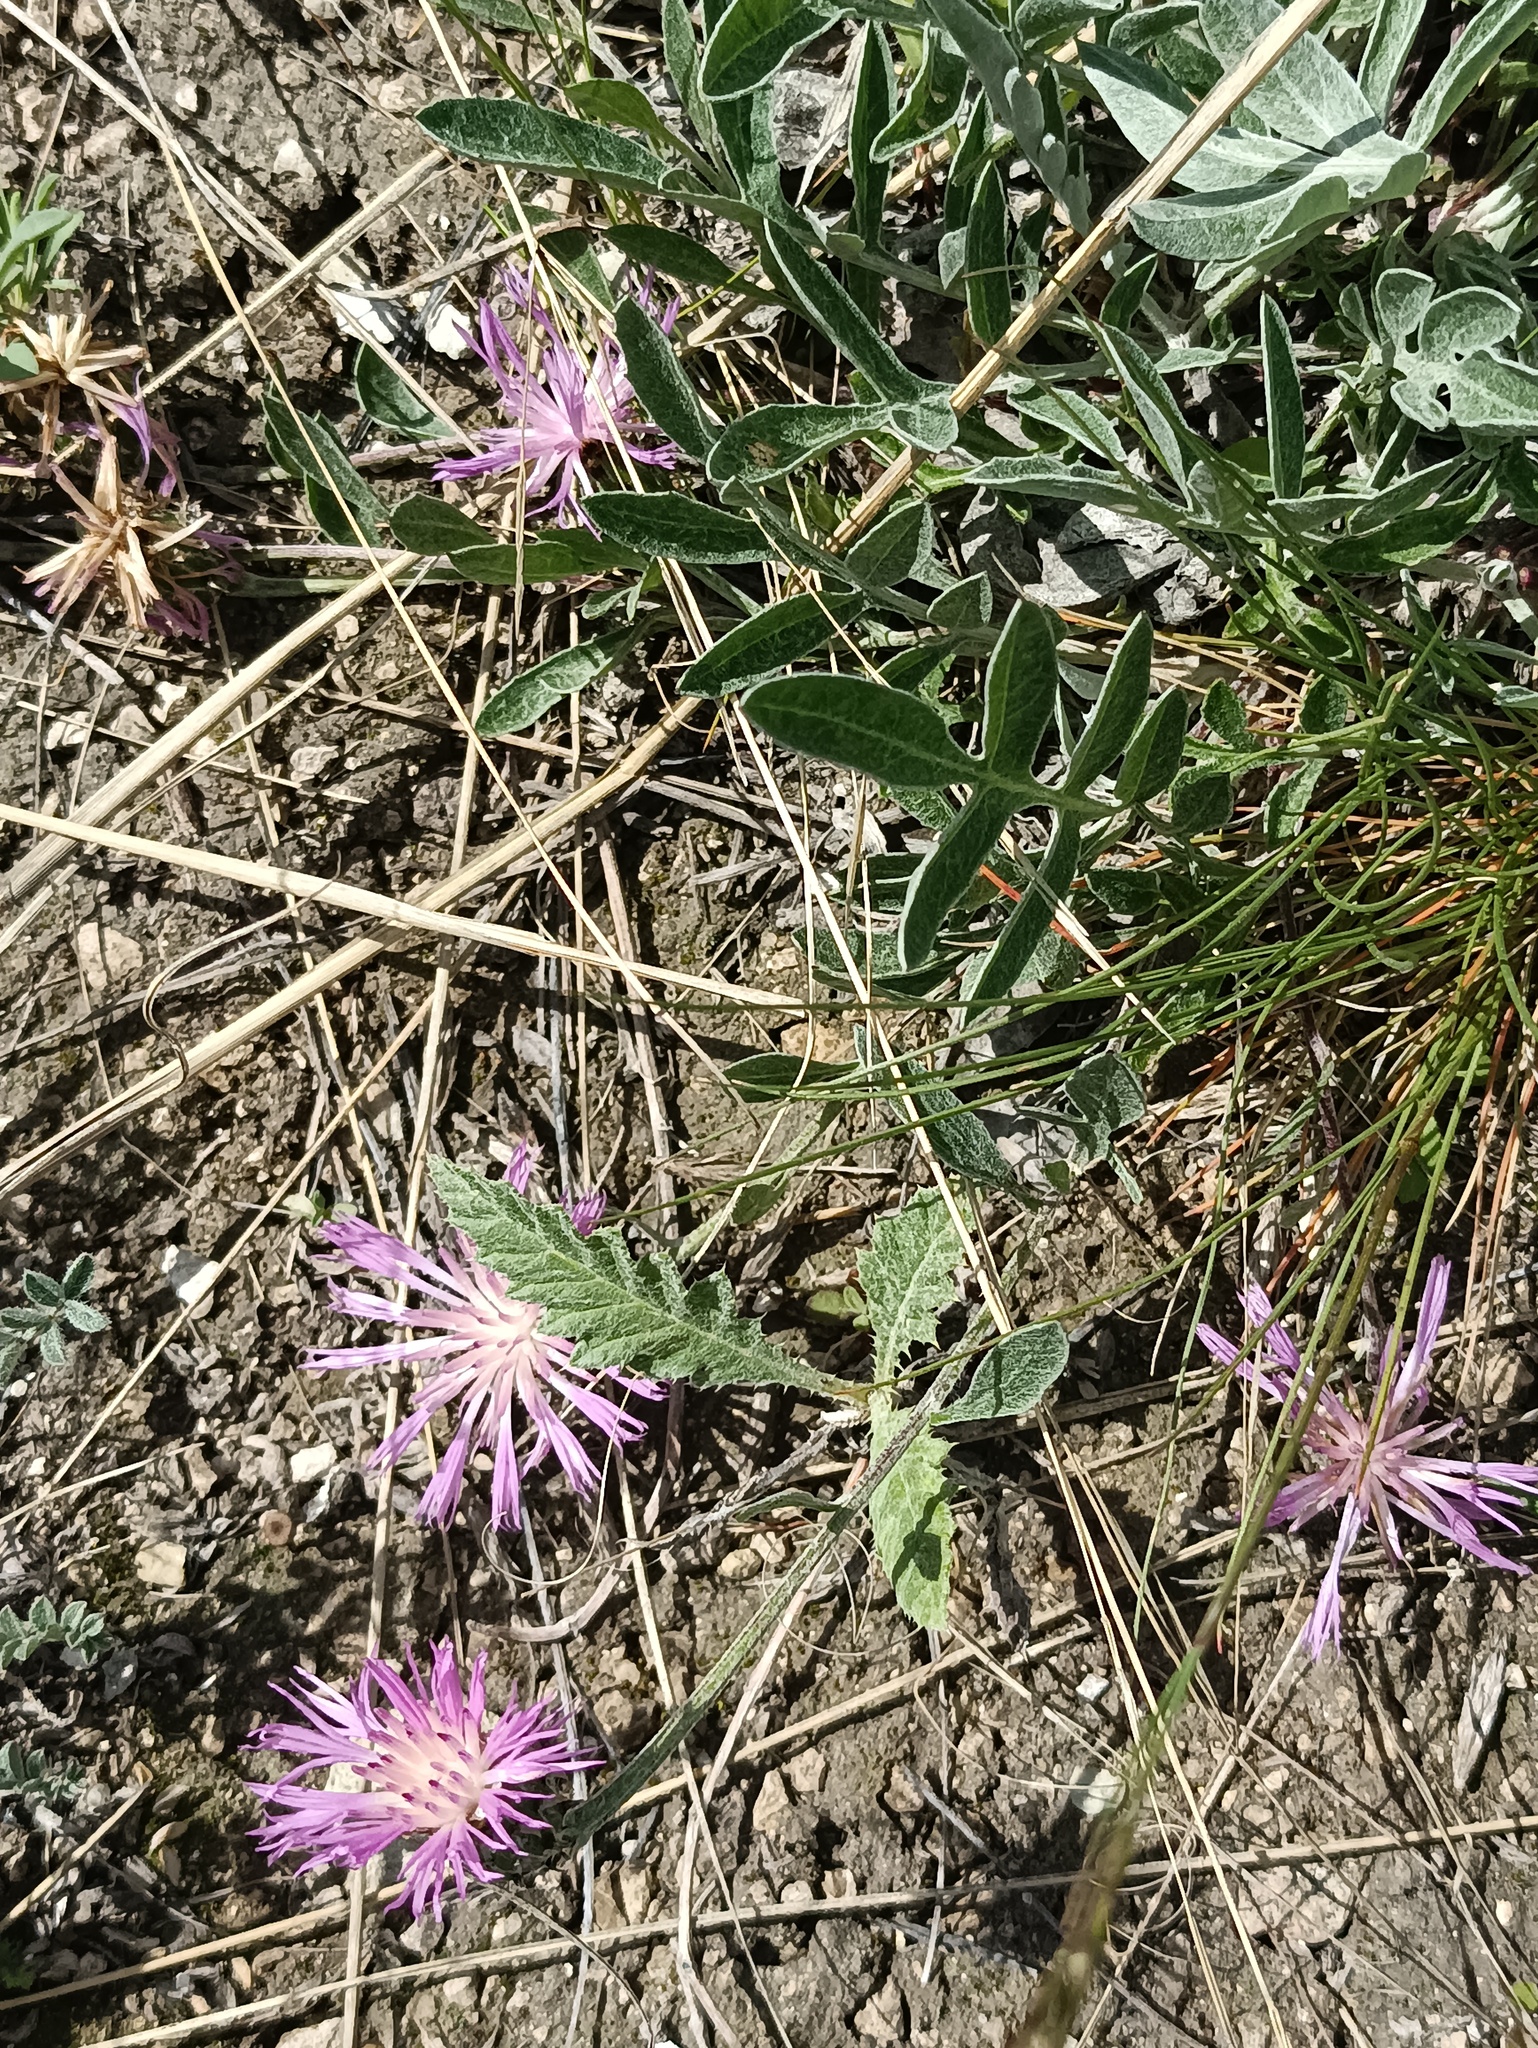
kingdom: Plantae
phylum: Tracheophyta
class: Magnoliopsida
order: Asterales
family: Asteraceae
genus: Psephellus
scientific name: Psephellus marschallianus
